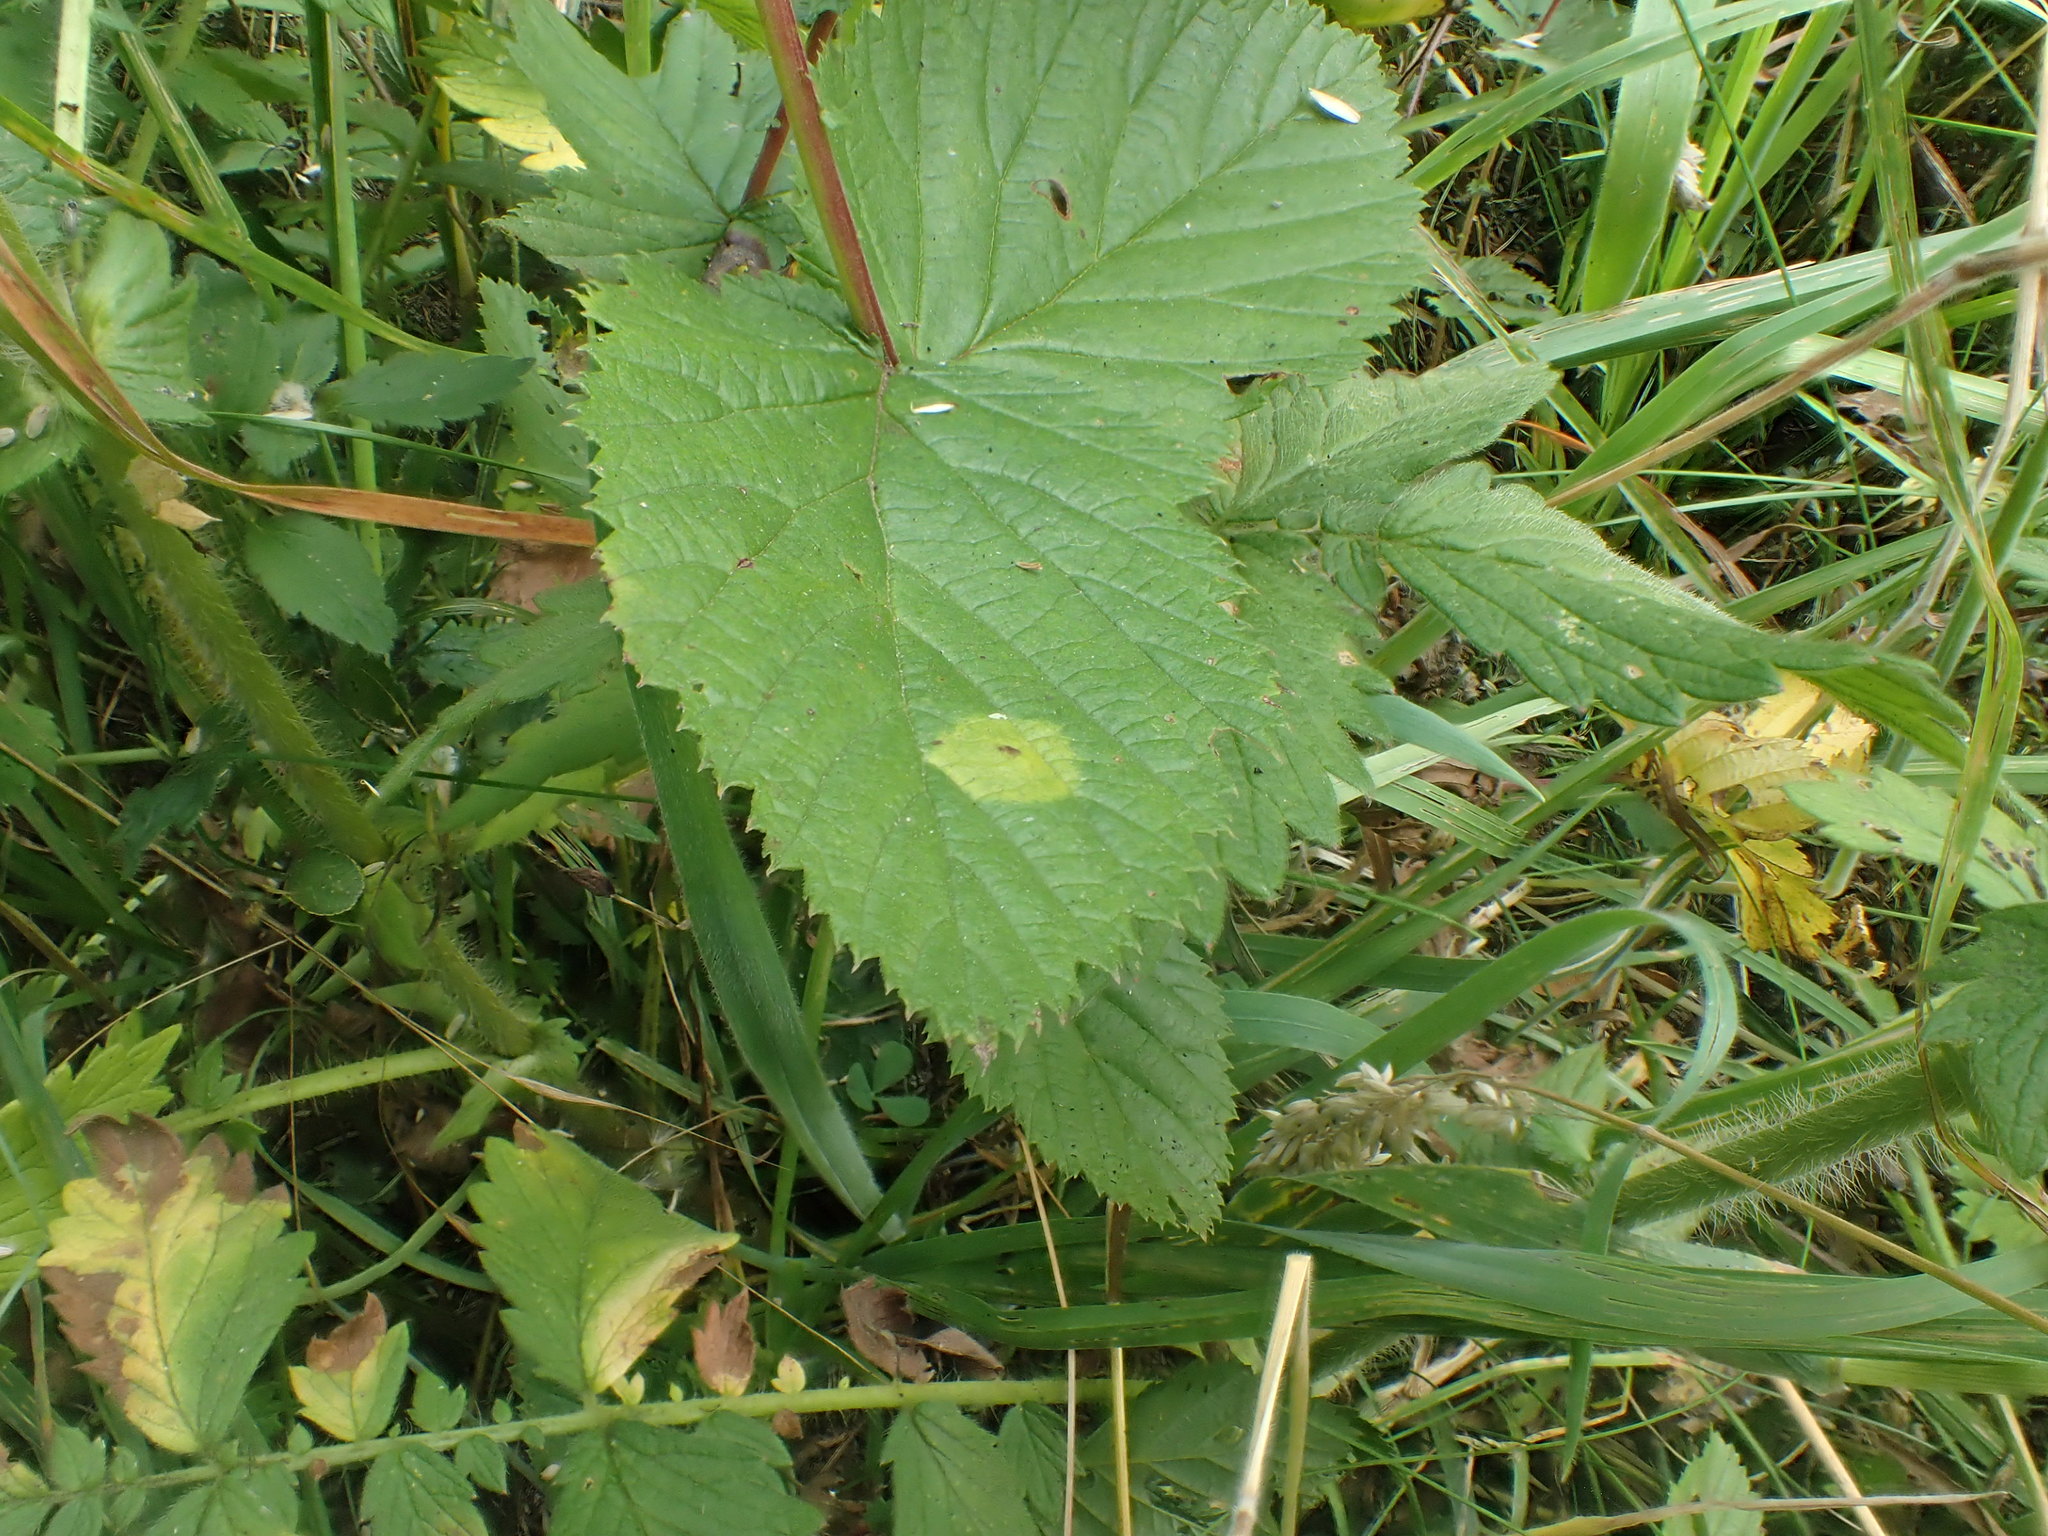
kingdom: Animalia
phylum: Arthropoda
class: Insecta
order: Diptera
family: Cecidomyiidae
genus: Dasineura
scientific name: Dasineura pustulans
